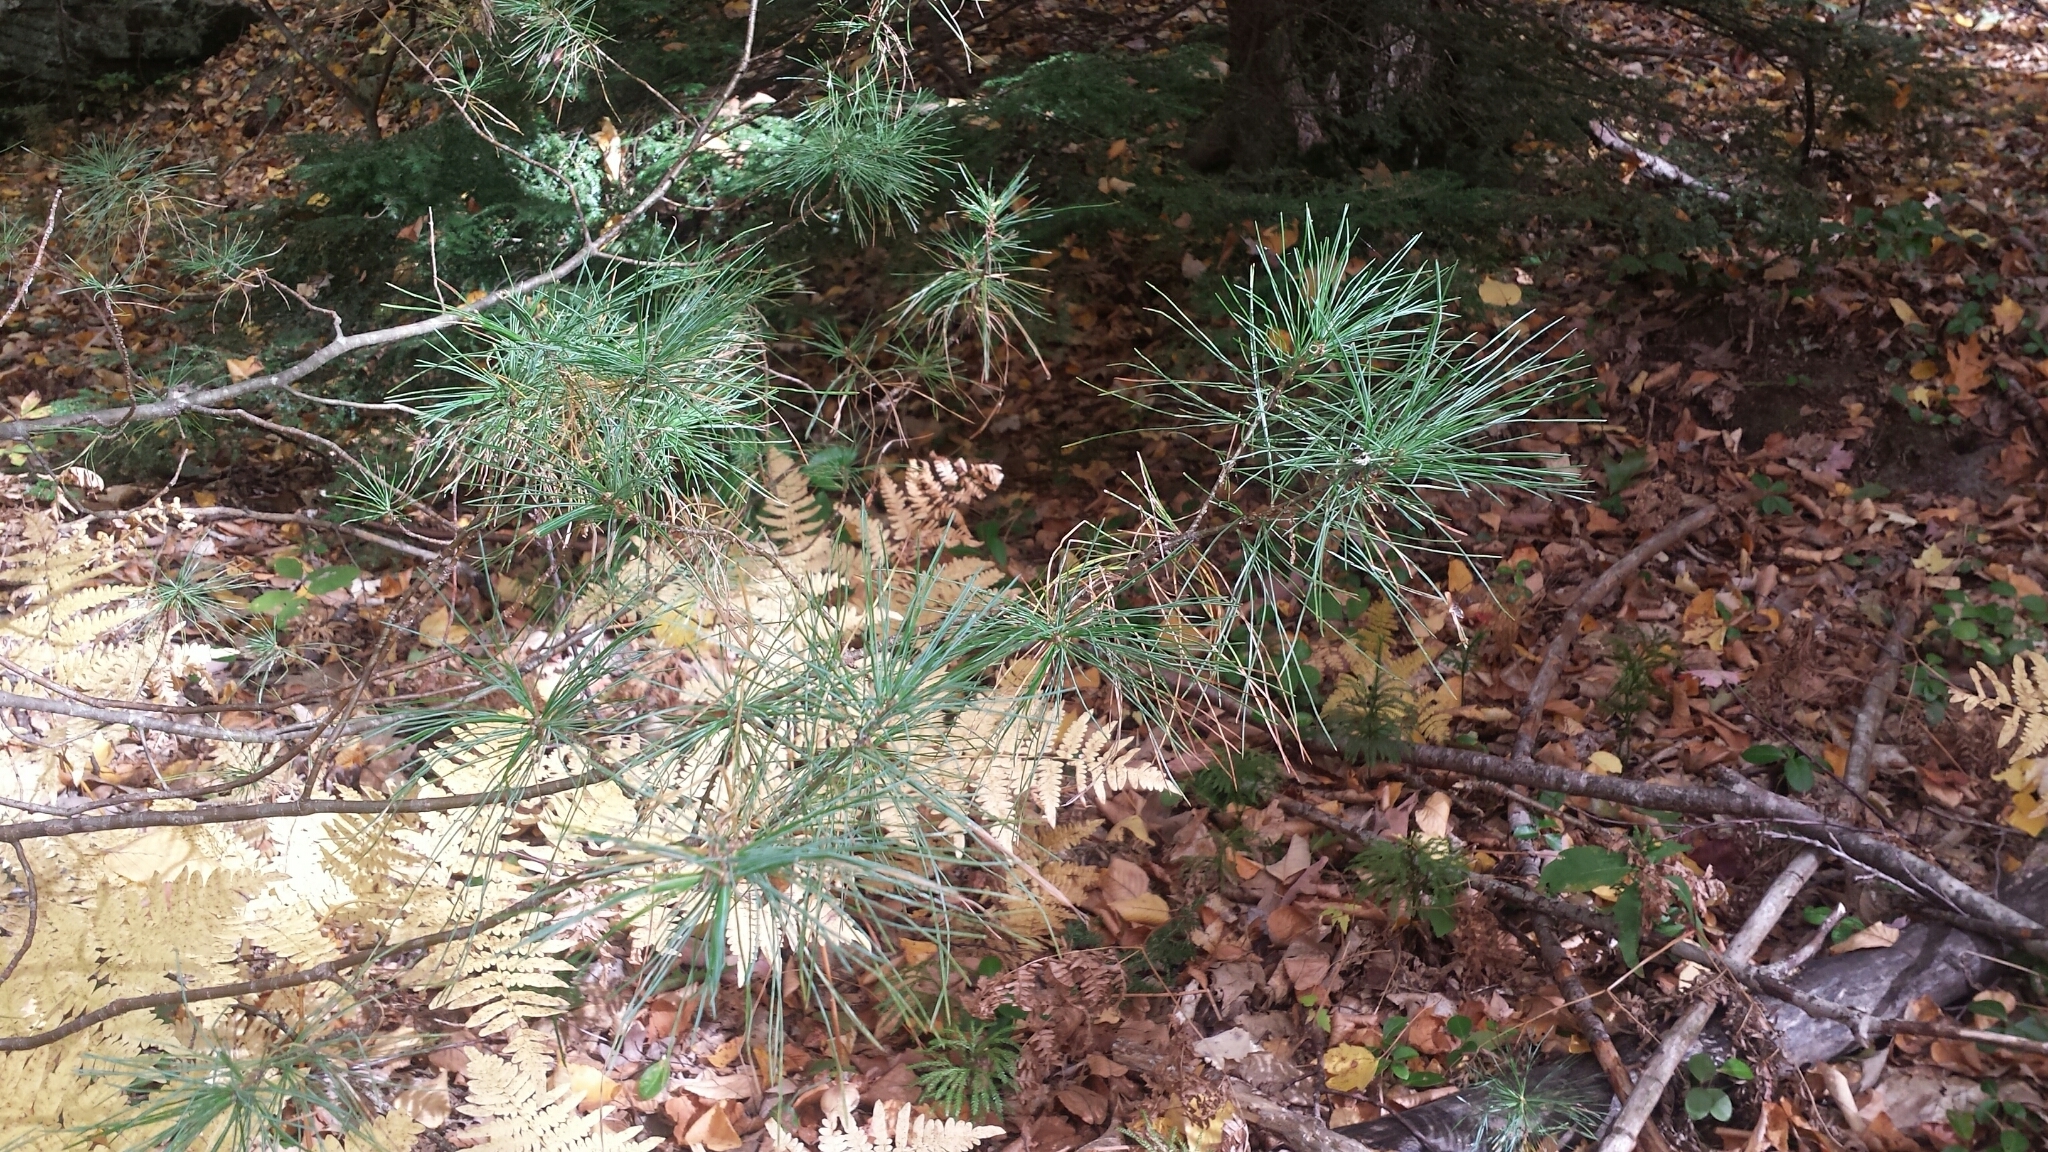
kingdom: Plantae
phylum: Tracheophyta
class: Pinopsida
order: Pinales
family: Pinaceae
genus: Pinus
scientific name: Pinus strobus
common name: Weymouth pine
